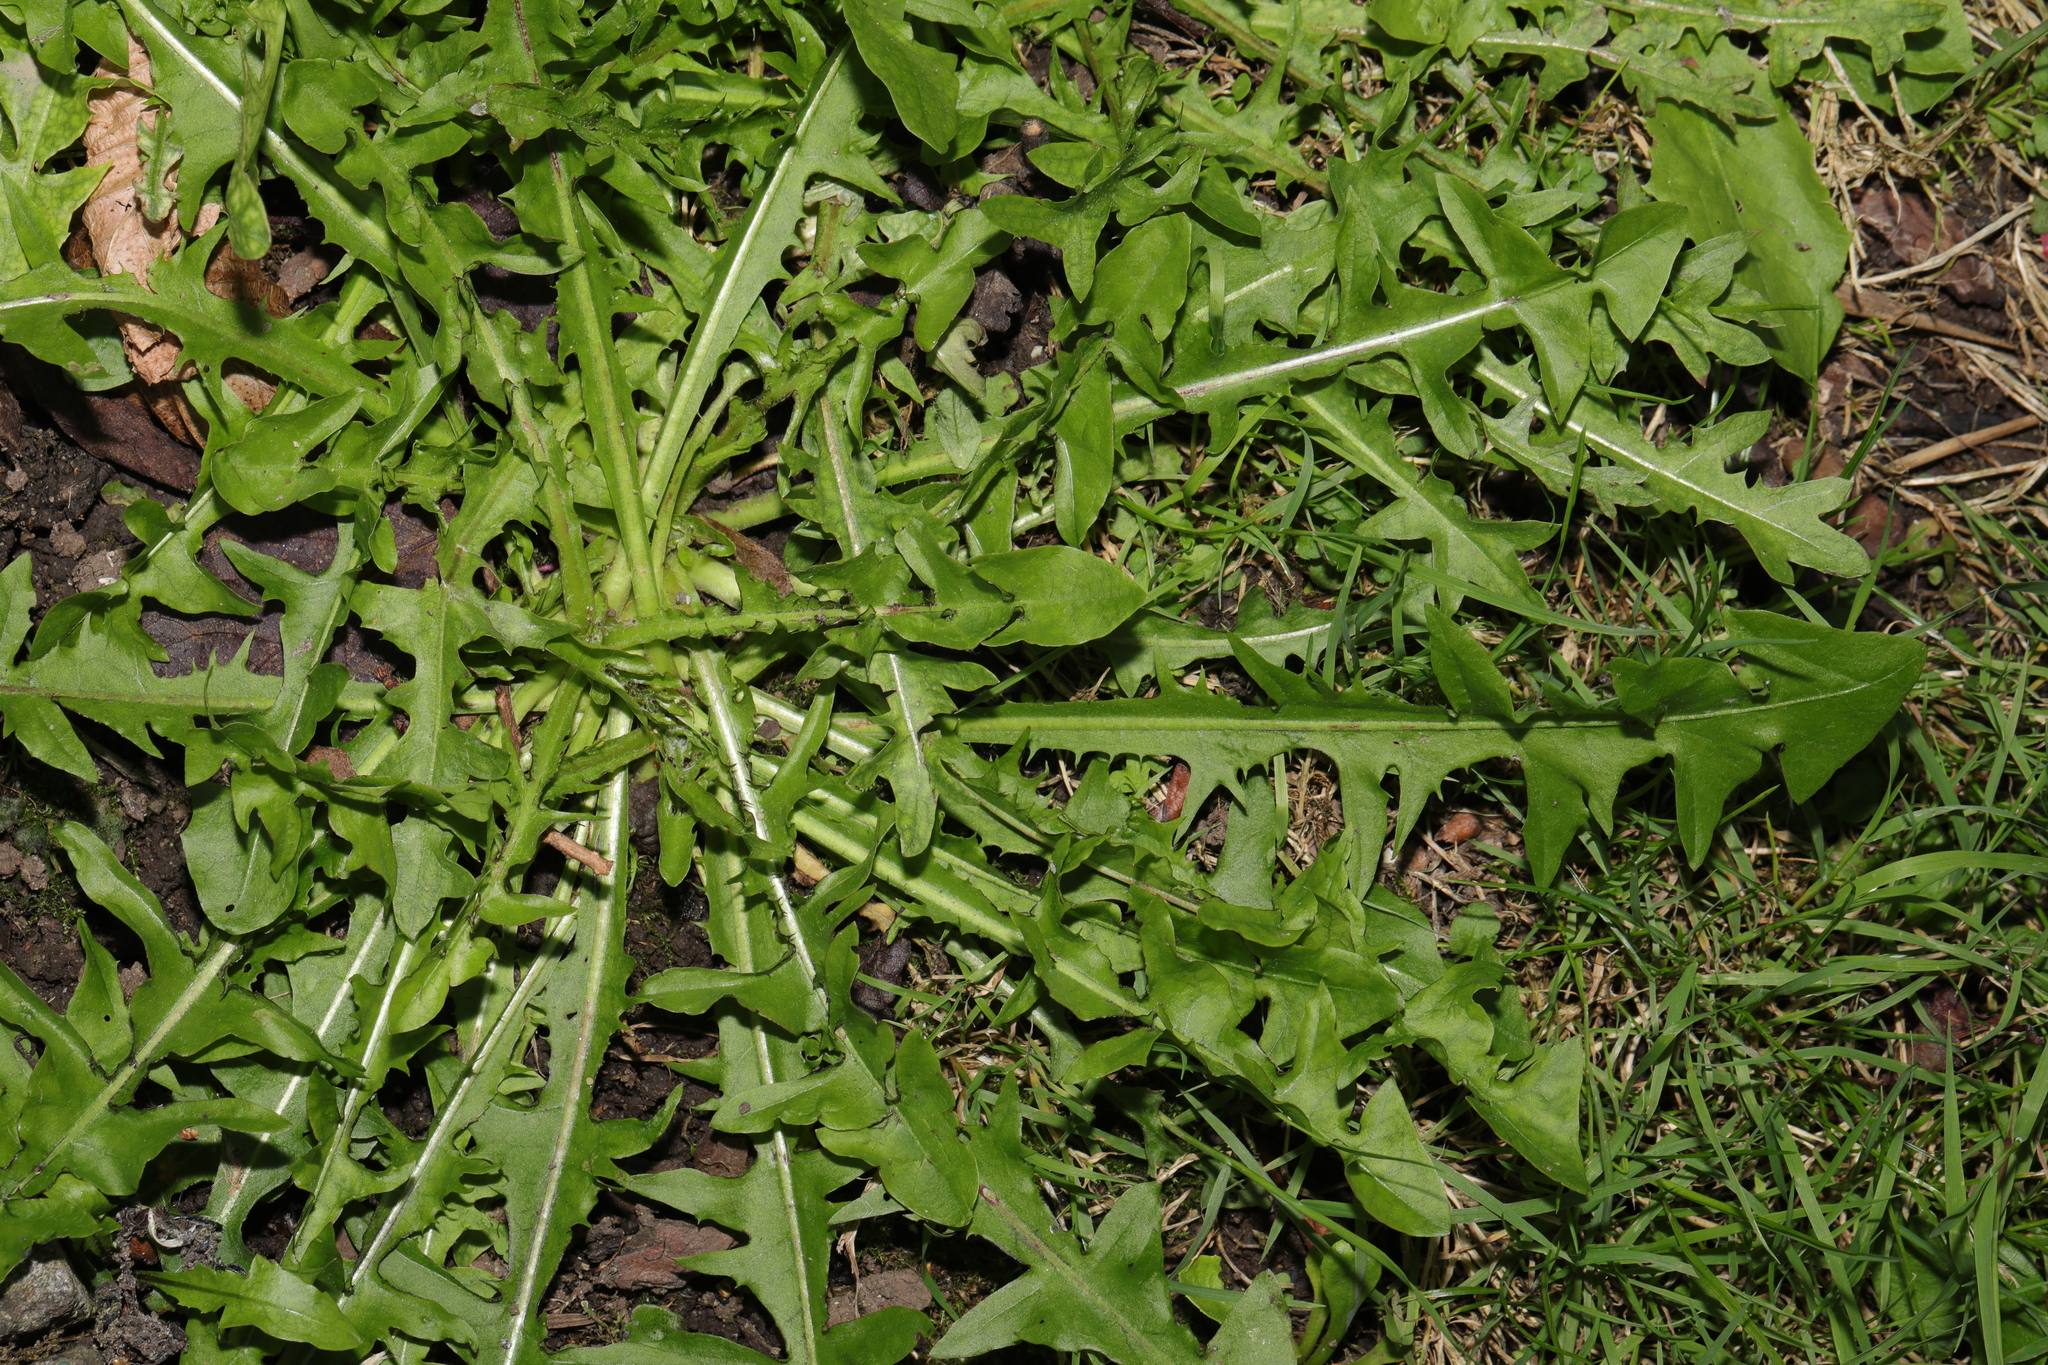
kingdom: Plantae
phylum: Tracheophyta
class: Magnoliopsida
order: Asterales
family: Asteraceae
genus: Taraxacum
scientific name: Taraxacum officinale
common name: Common dandelion
